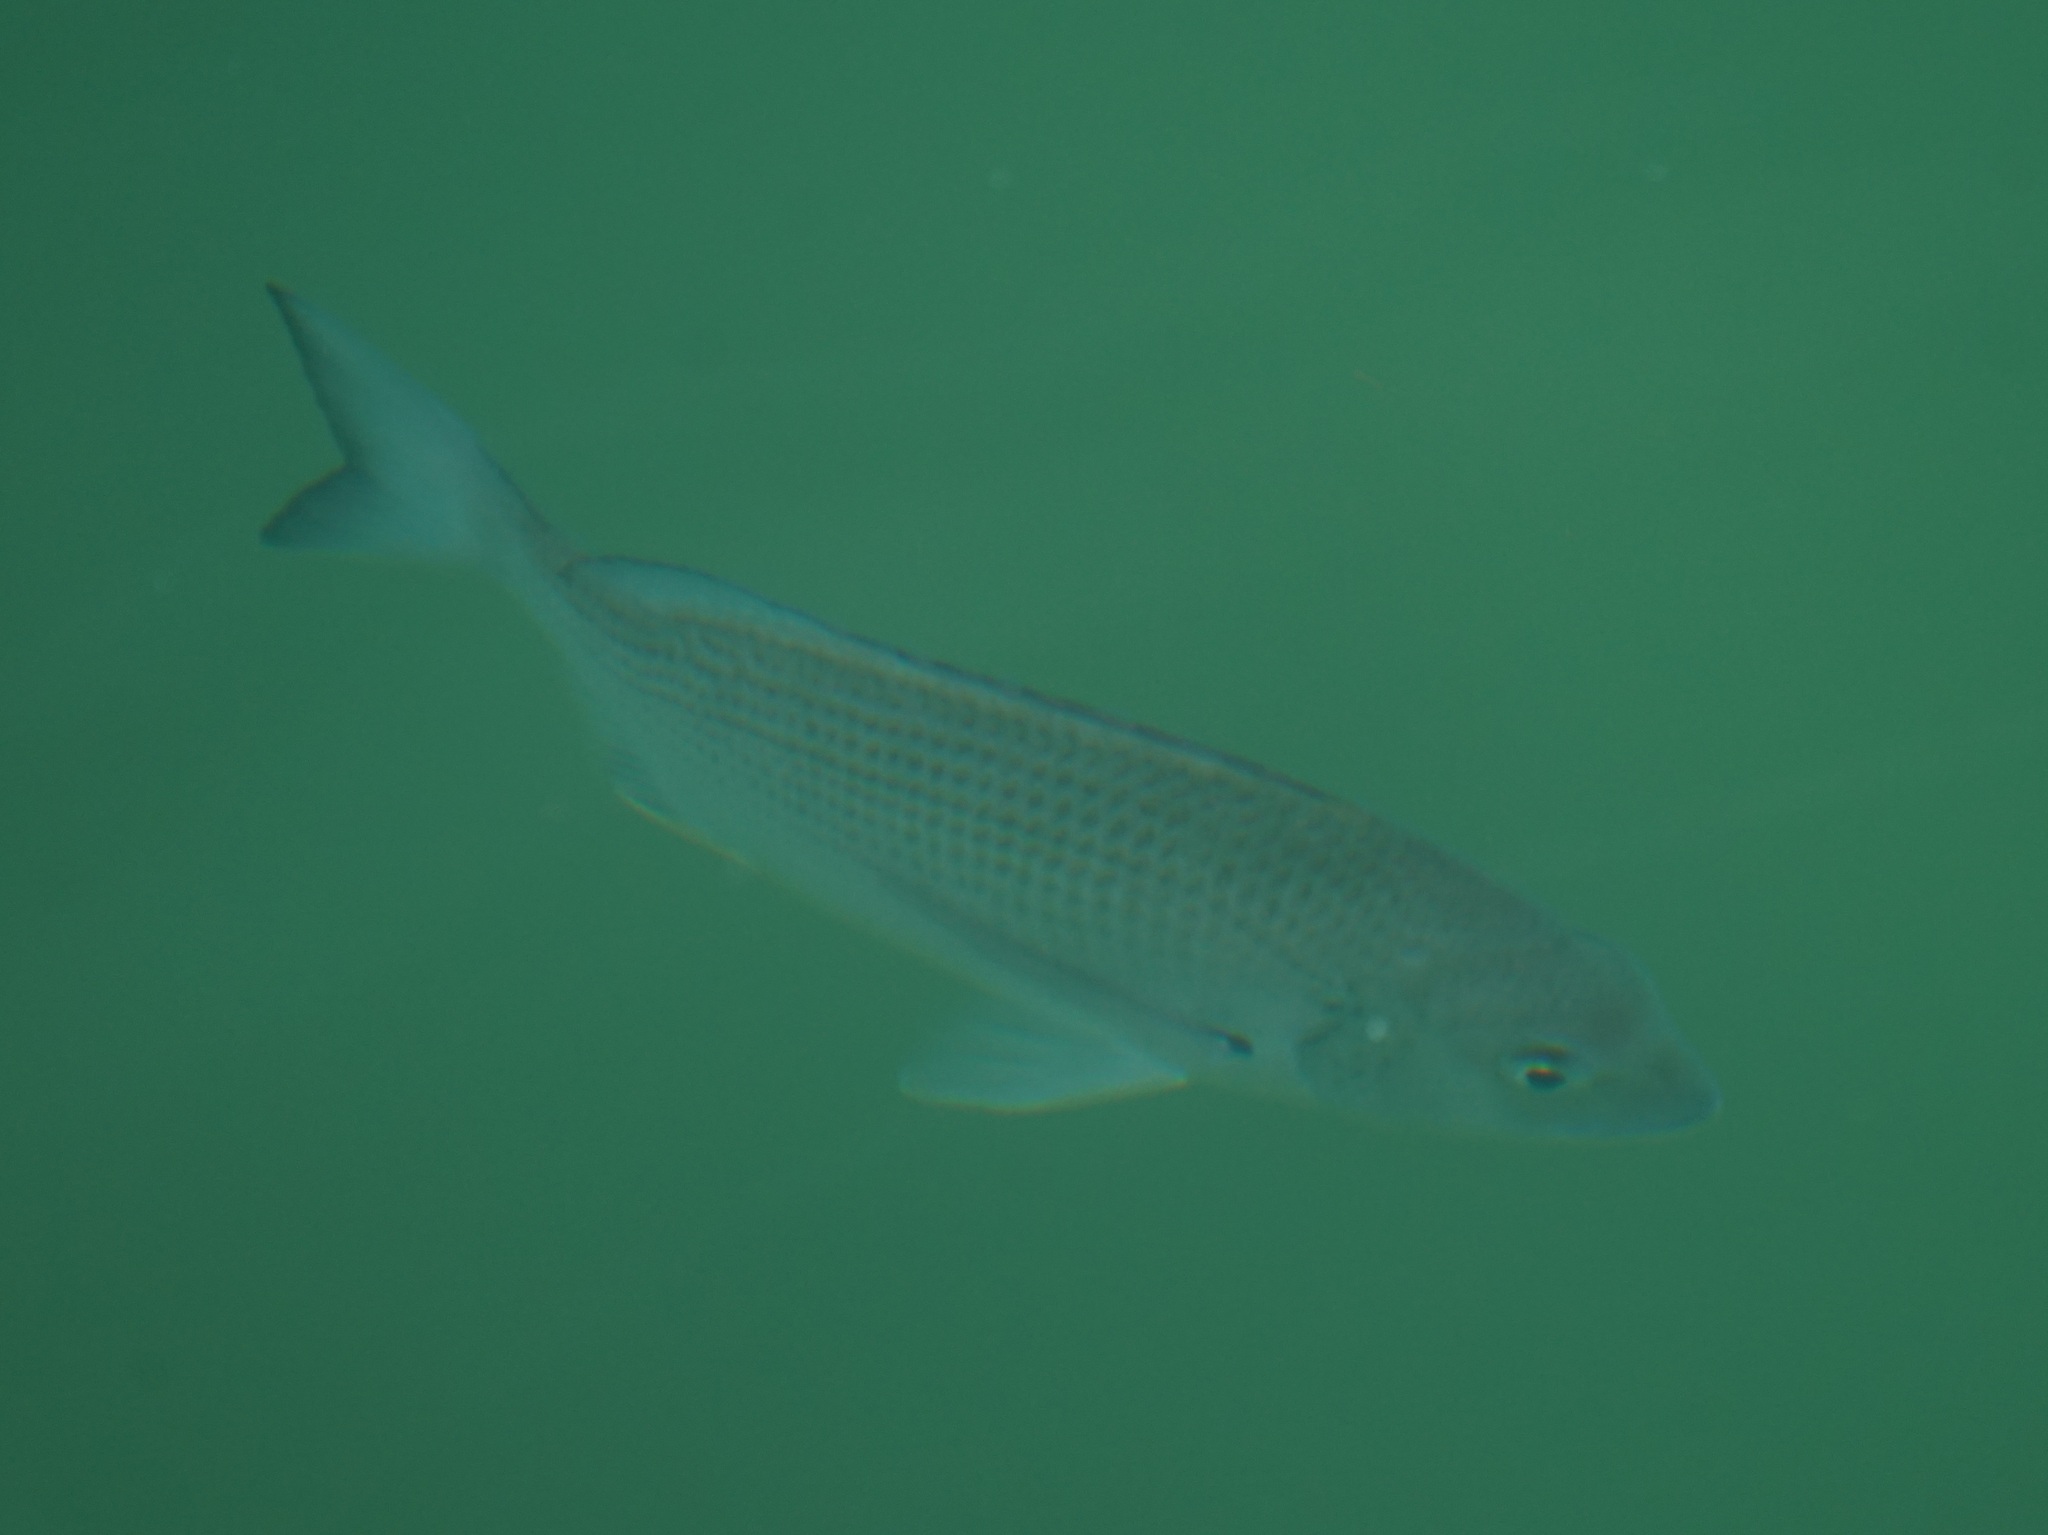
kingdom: Animalia
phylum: Chordata
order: Perciformes
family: Sparidae
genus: Acanthopagrus
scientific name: Acanthopagrus australis
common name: Surf bream
